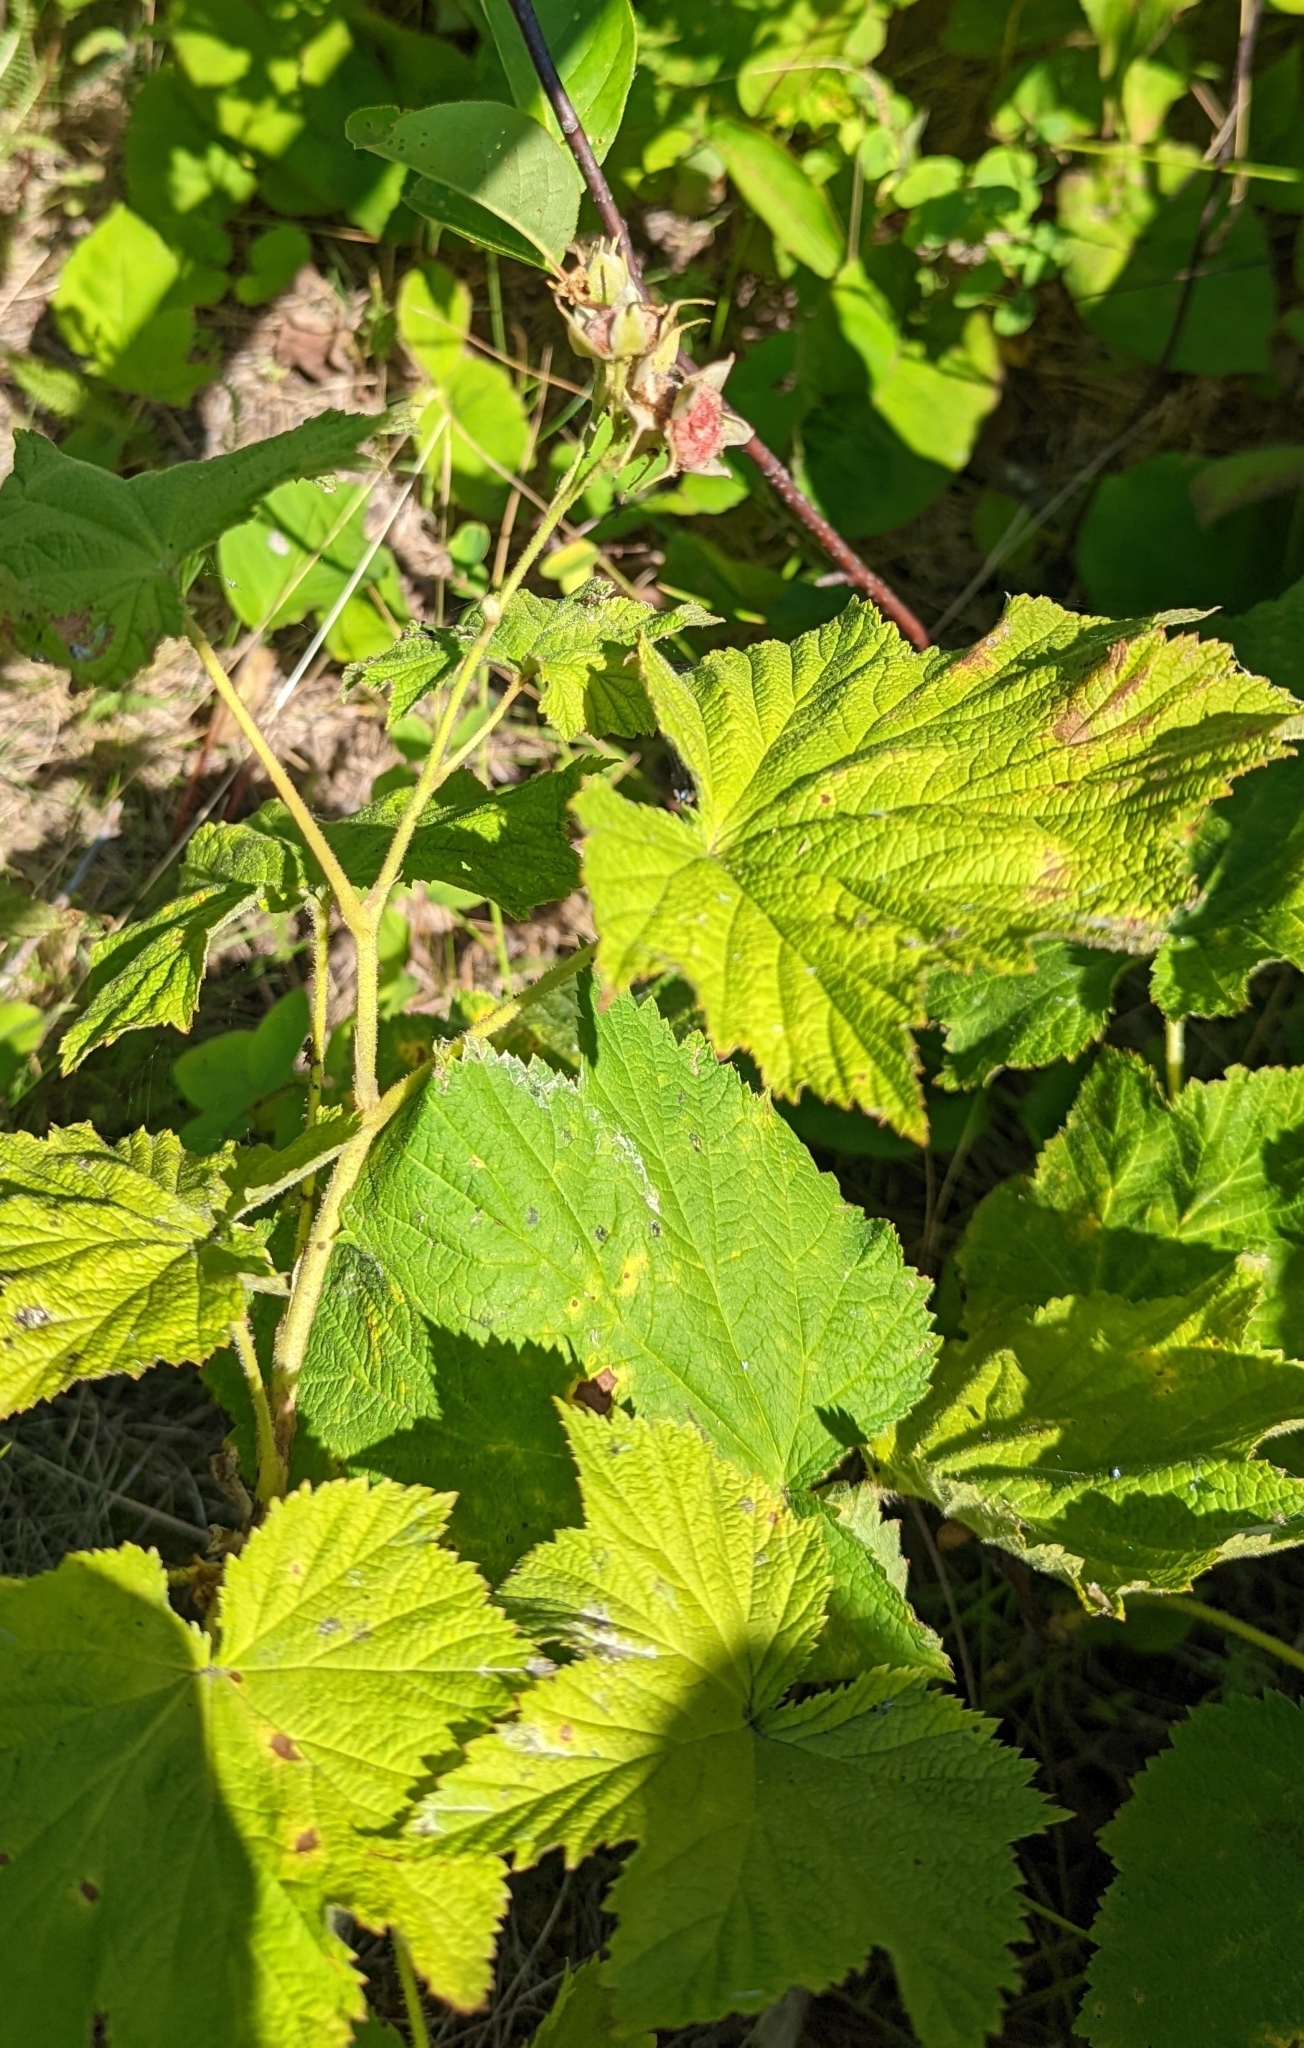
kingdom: Plantae
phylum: Tracheophyta
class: Magnoliopsida
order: Rosales
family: Rosaceae
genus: Rubus
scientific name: Rubus parviflorus
